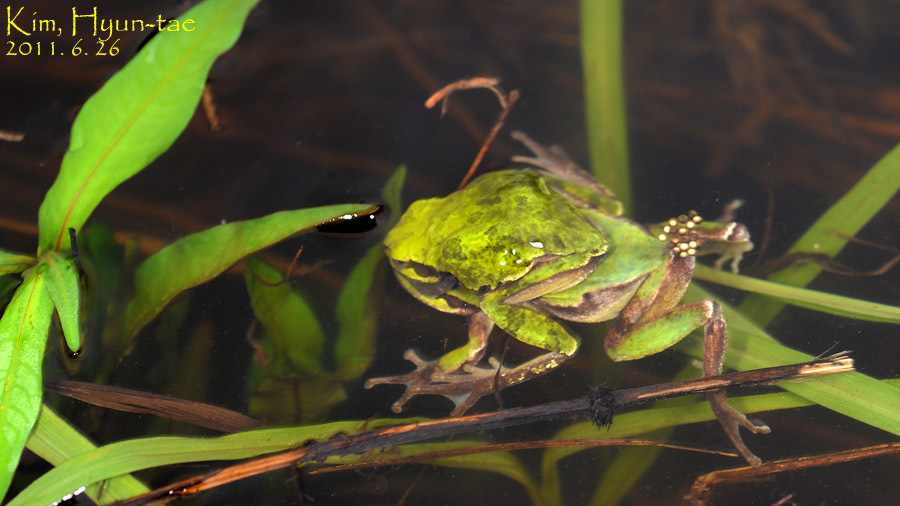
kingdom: Animalia
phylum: Chordata
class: Amphibia
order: Anura
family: Hylidae
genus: Dryophytes
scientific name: Dryophytes japonicus
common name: Japanese treefrog
